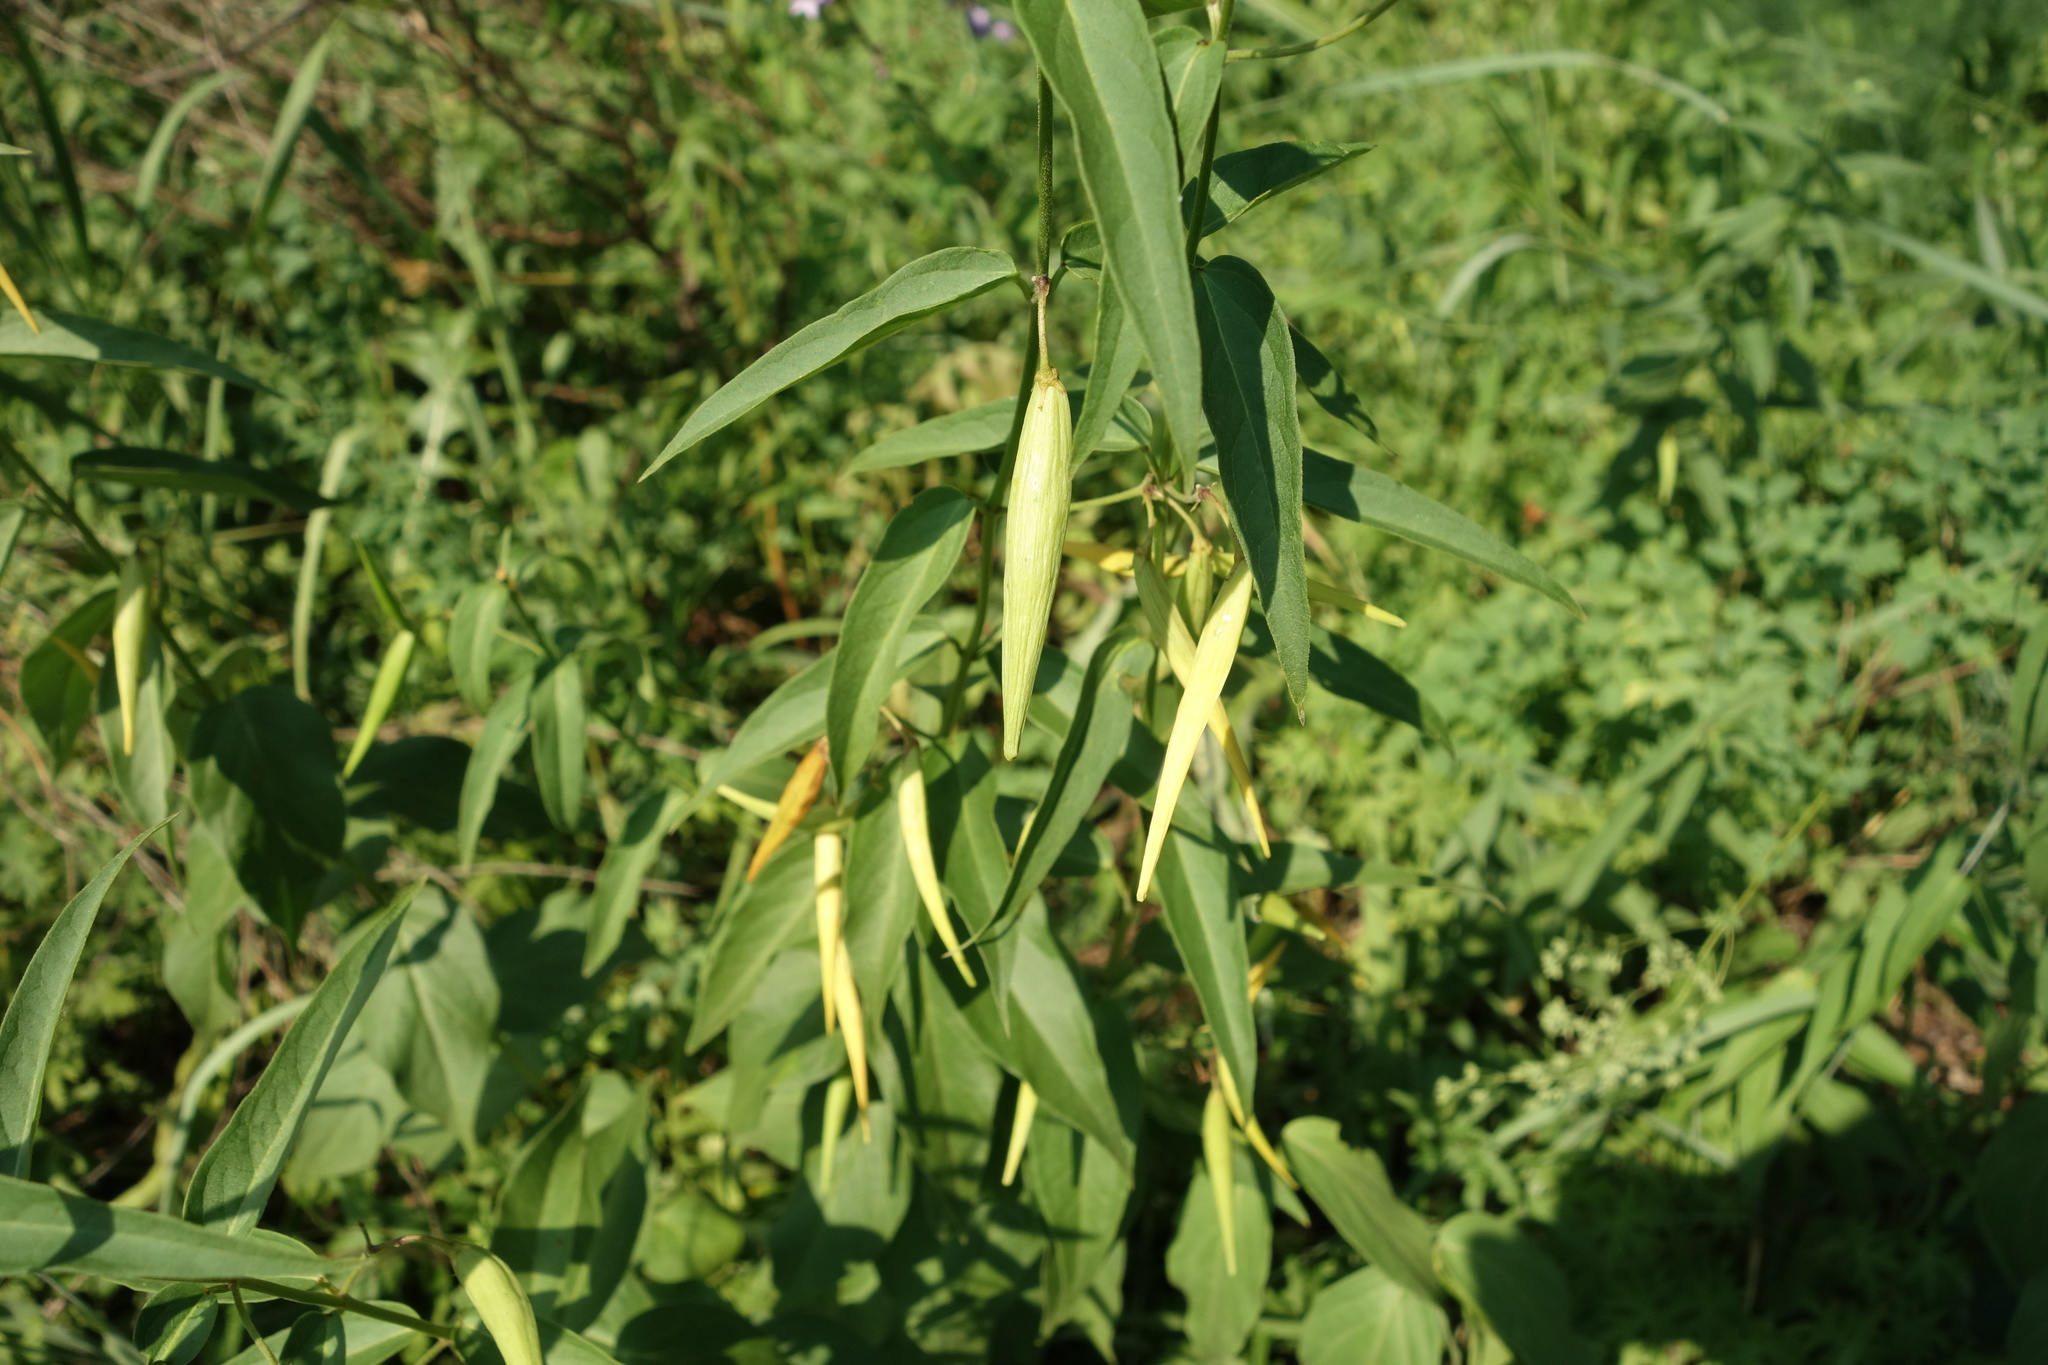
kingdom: Plantae
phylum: Tracheophyta
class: Magnoliopsida
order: Gentianales
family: Apocynaceae
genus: Vincetoxicum
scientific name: Vincetoxicum hirundinaria
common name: White swallowwort
